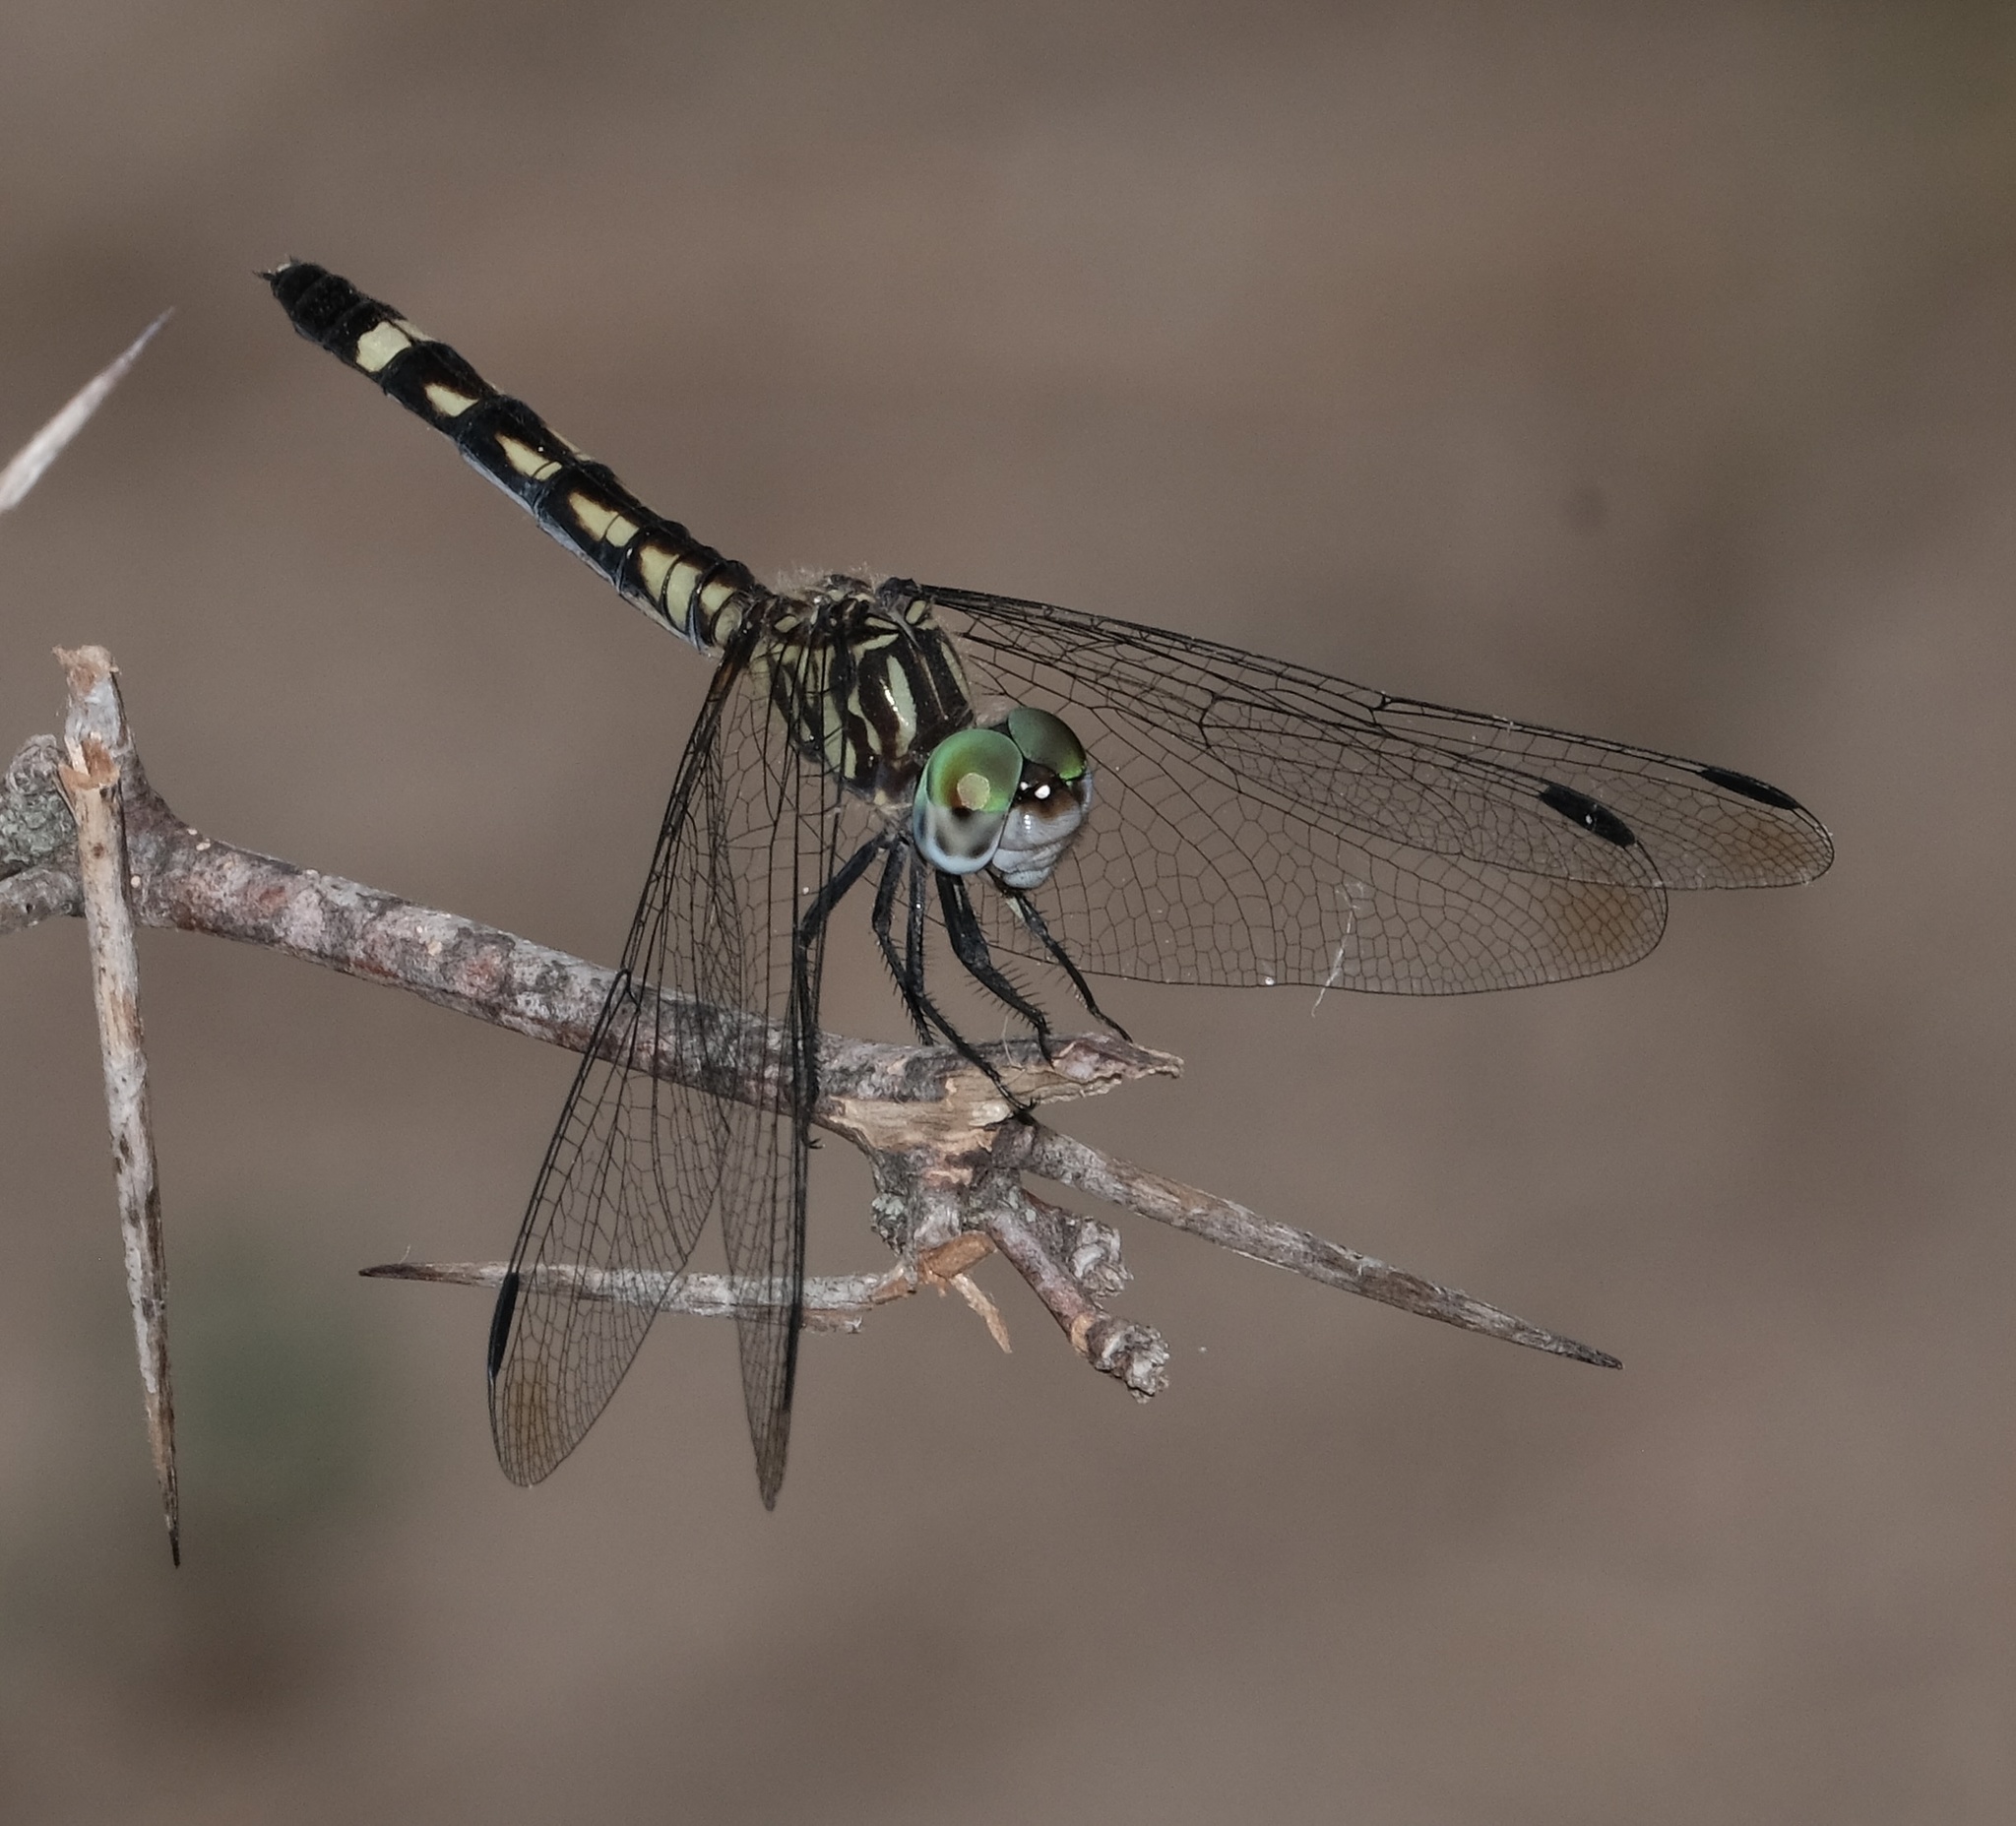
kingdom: Animalia
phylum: Arthropoda
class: Insecta
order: Odonata
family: Libellulidae
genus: Micrathyria
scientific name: Micrathyria hagenii
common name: Thornbush dasher
